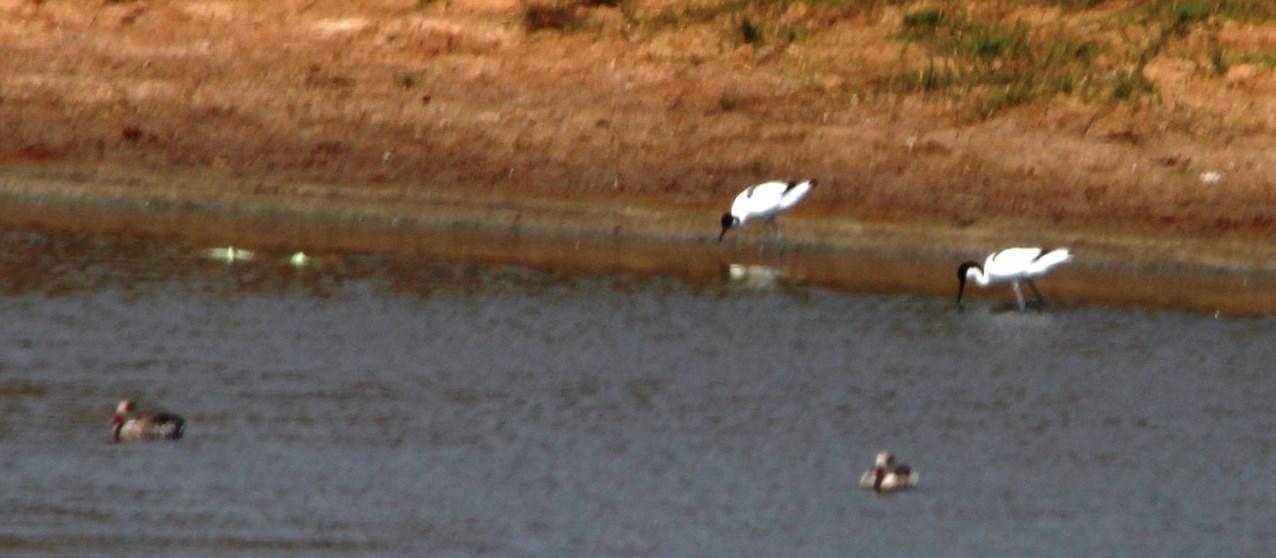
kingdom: Animalia
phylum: Chordata
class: Aves
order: Charadriiformes
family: Recurvirostridae
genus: Recurvirostra
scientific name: Recurvirostra avosetta
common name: Pied avocet
